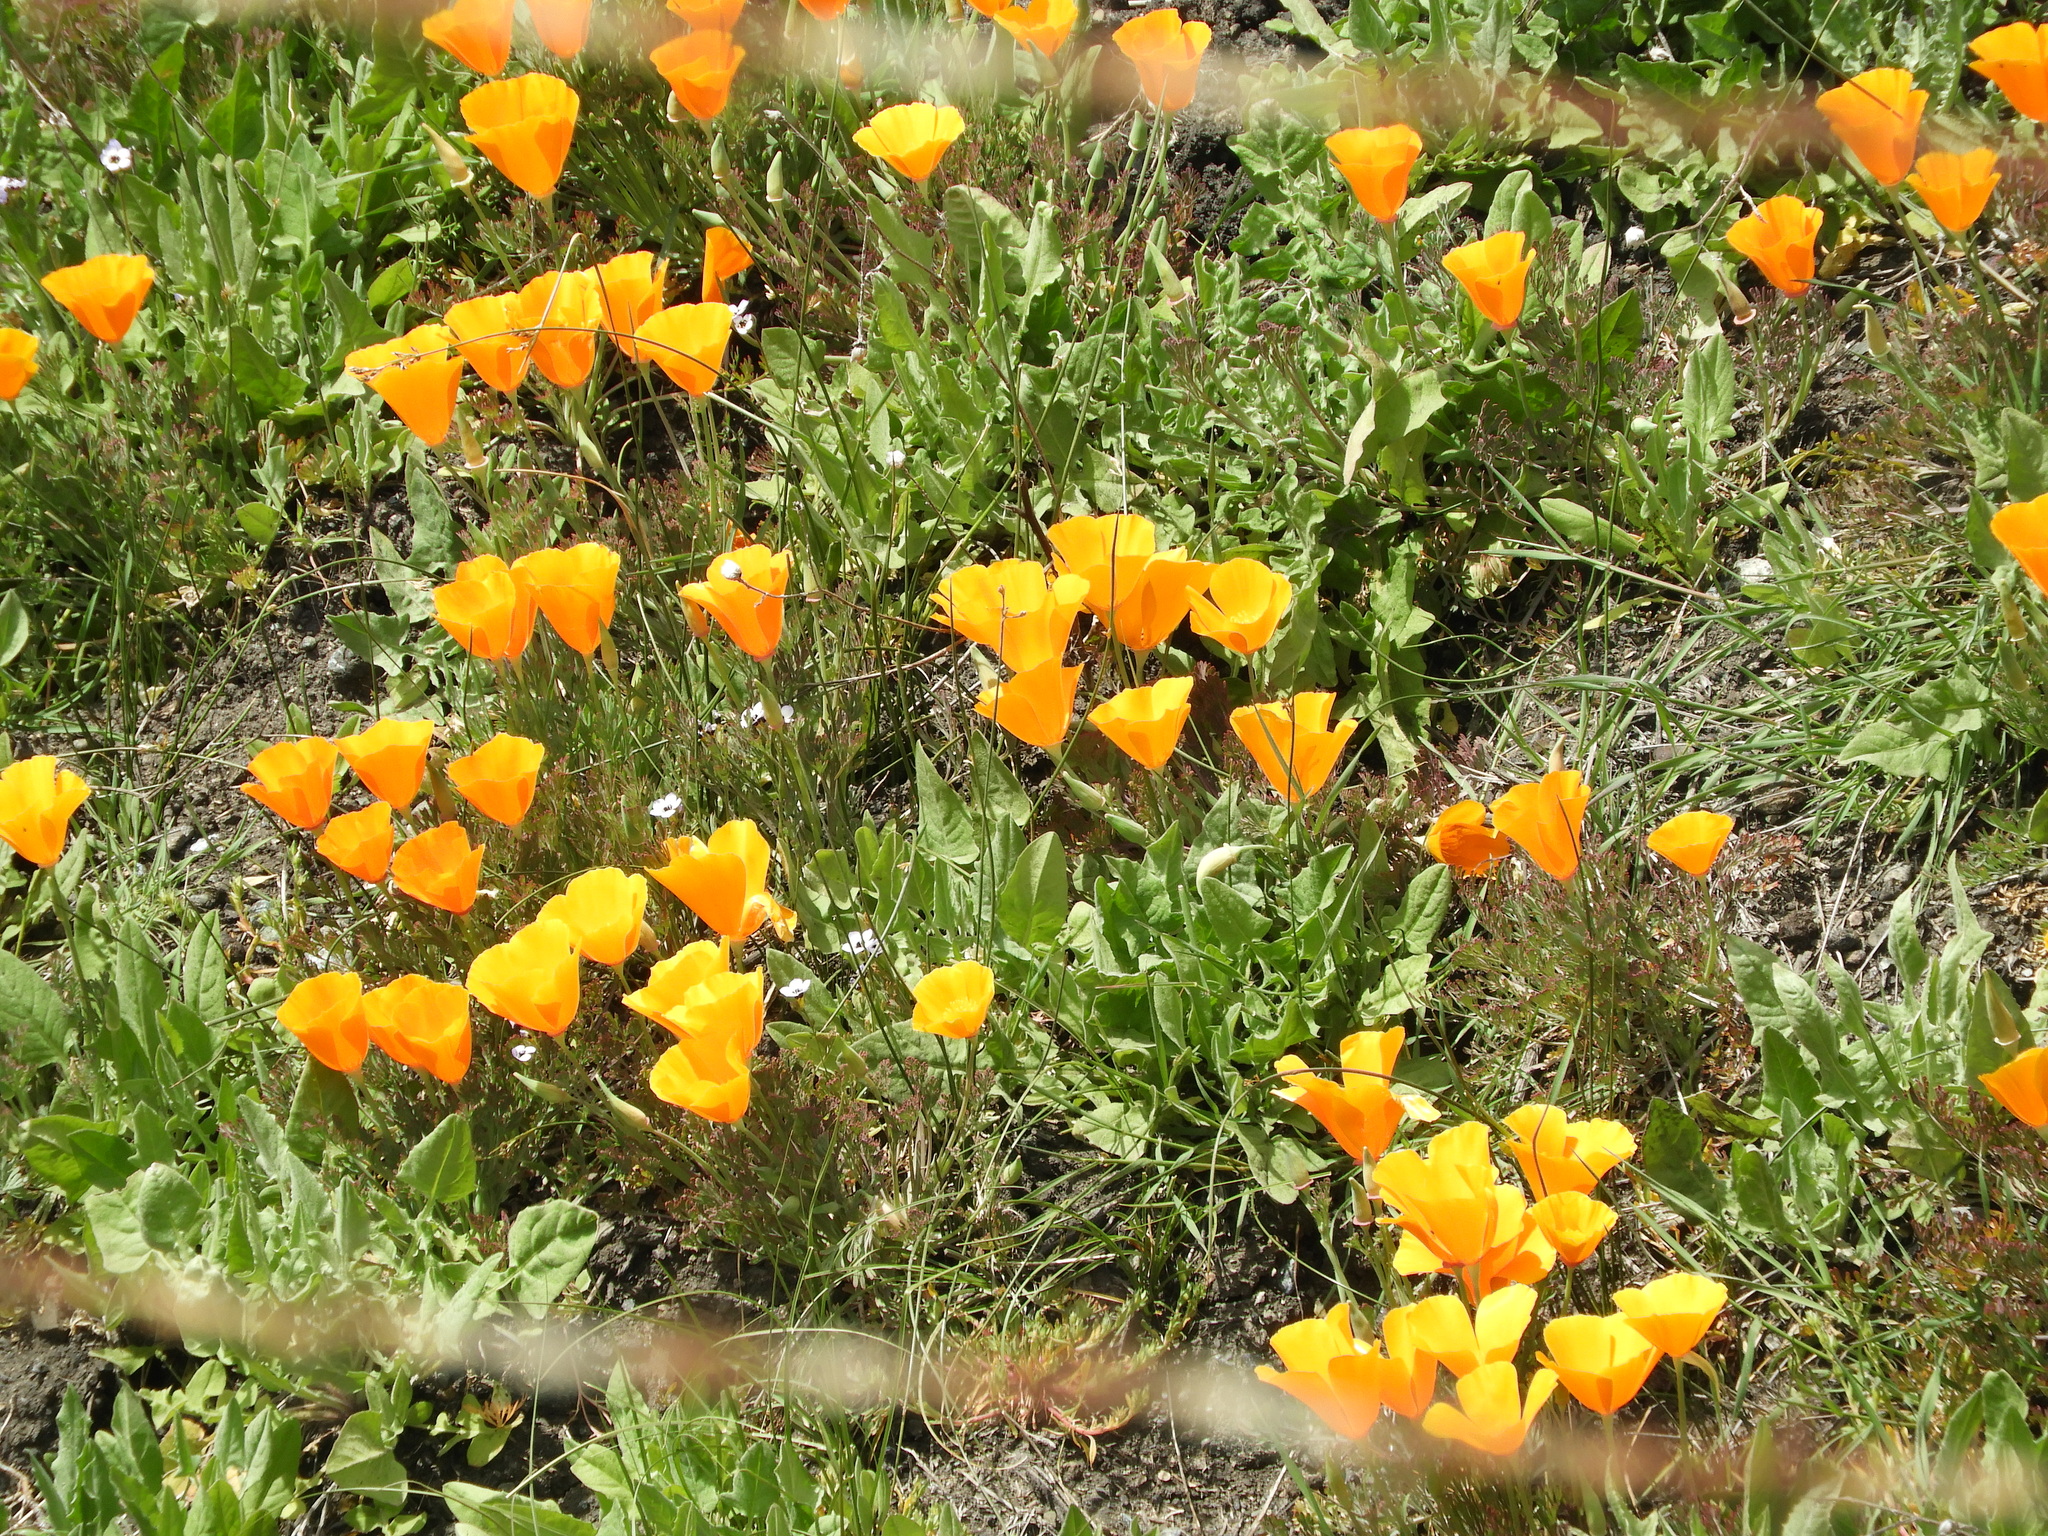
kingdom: Plantae
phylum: Tracheophyta
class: Magnoliopsida
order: Ranunculales
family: Papaveraceae
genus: Eschscholzia
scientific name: Eschscholzia californica
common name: California poppy
